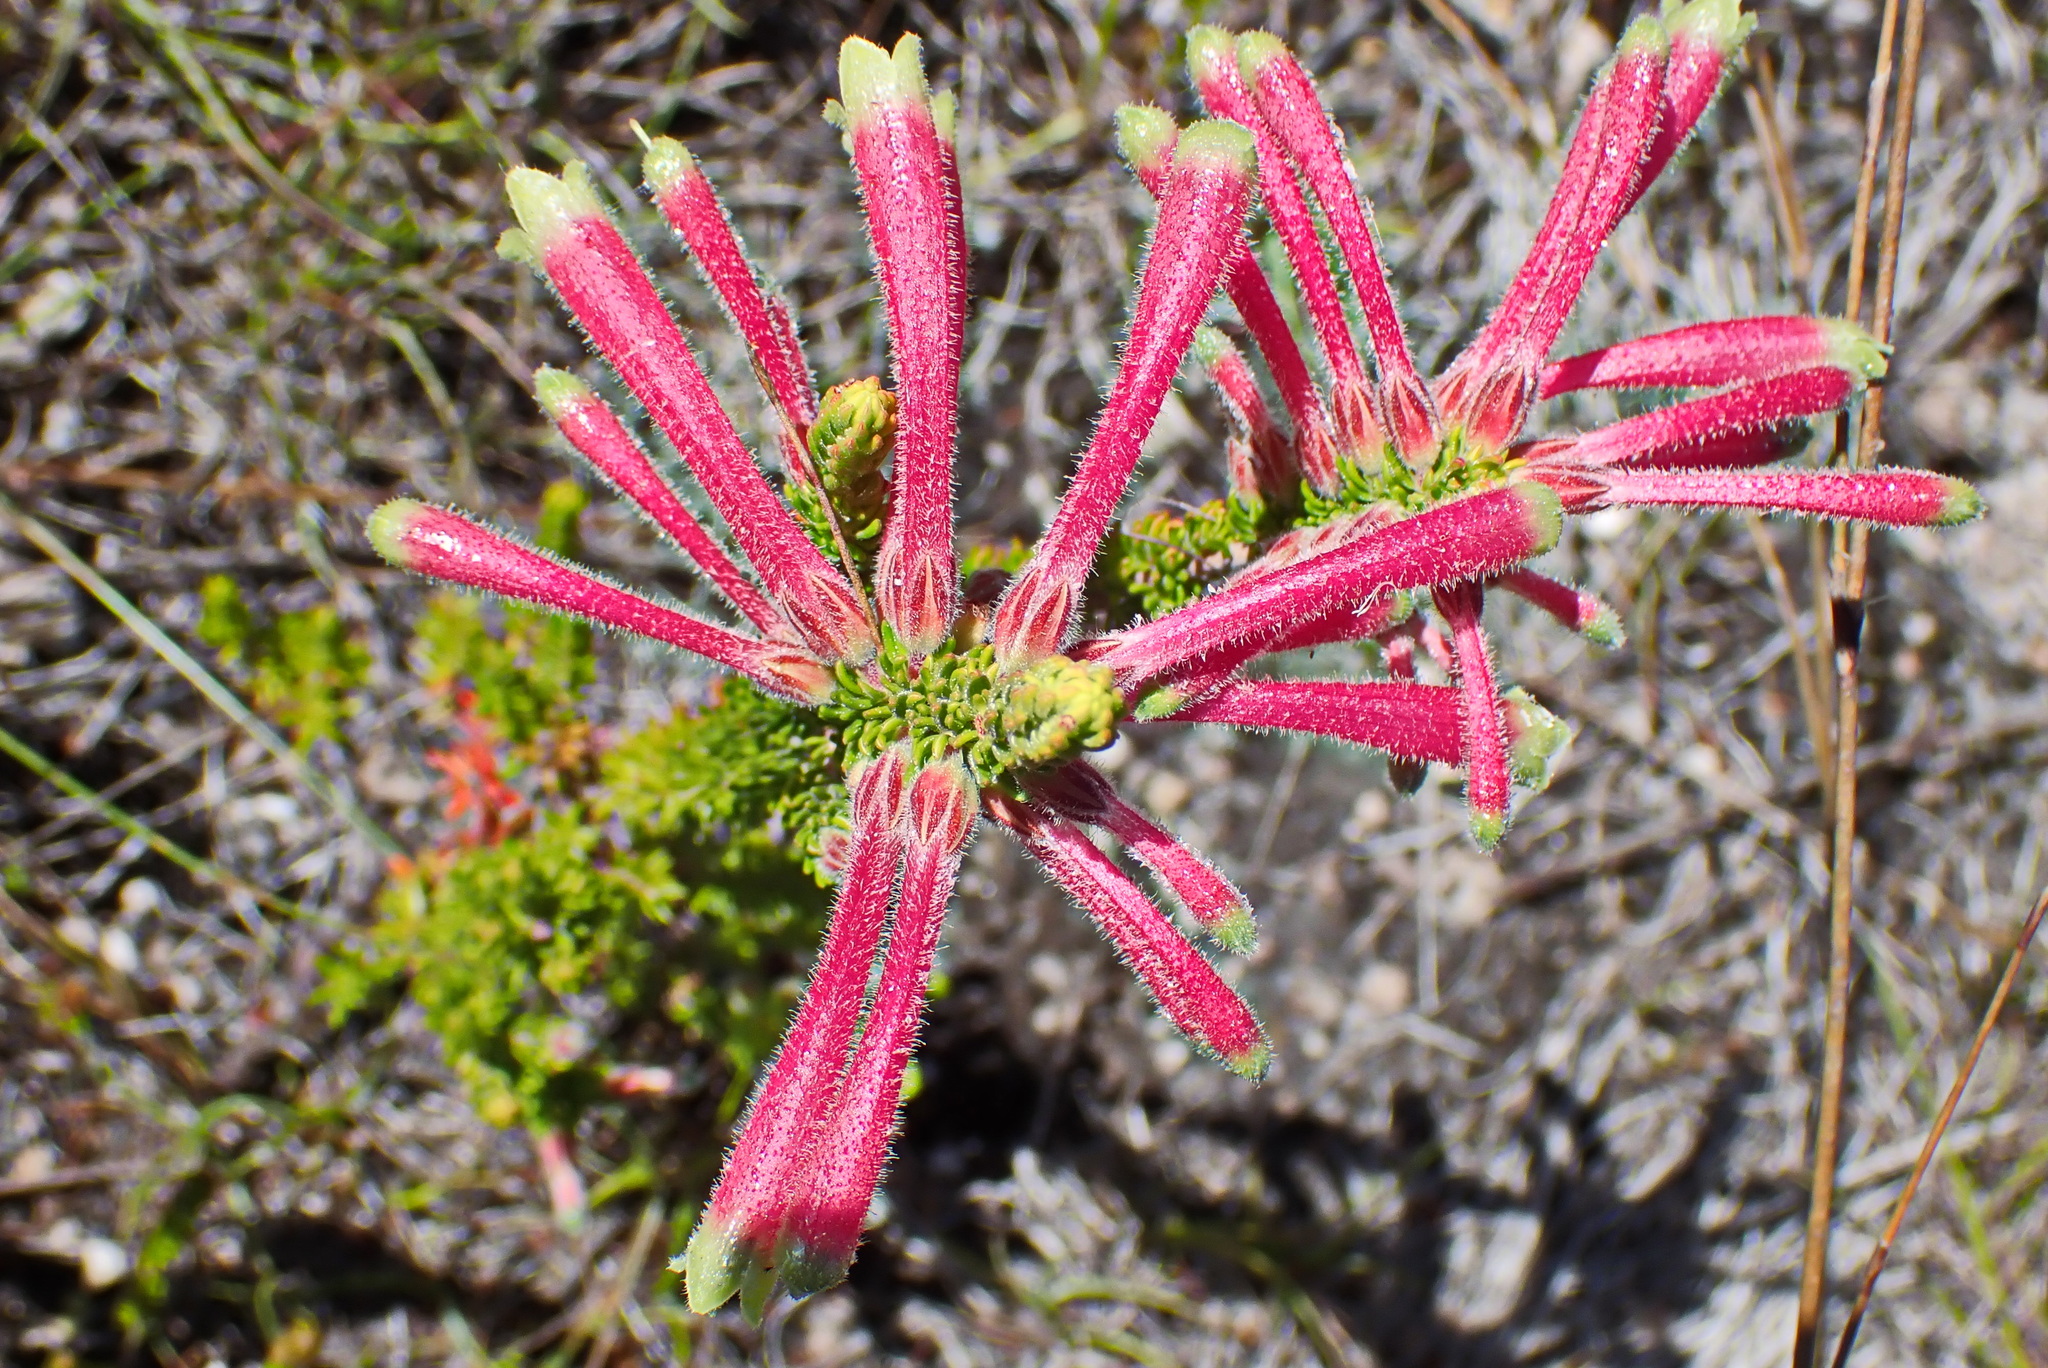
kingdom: Plantae
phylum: Tracheophyta
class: Magnoliopsida
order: Ericales
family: Ericaceae
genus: Erica
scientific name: Erica densifolia
